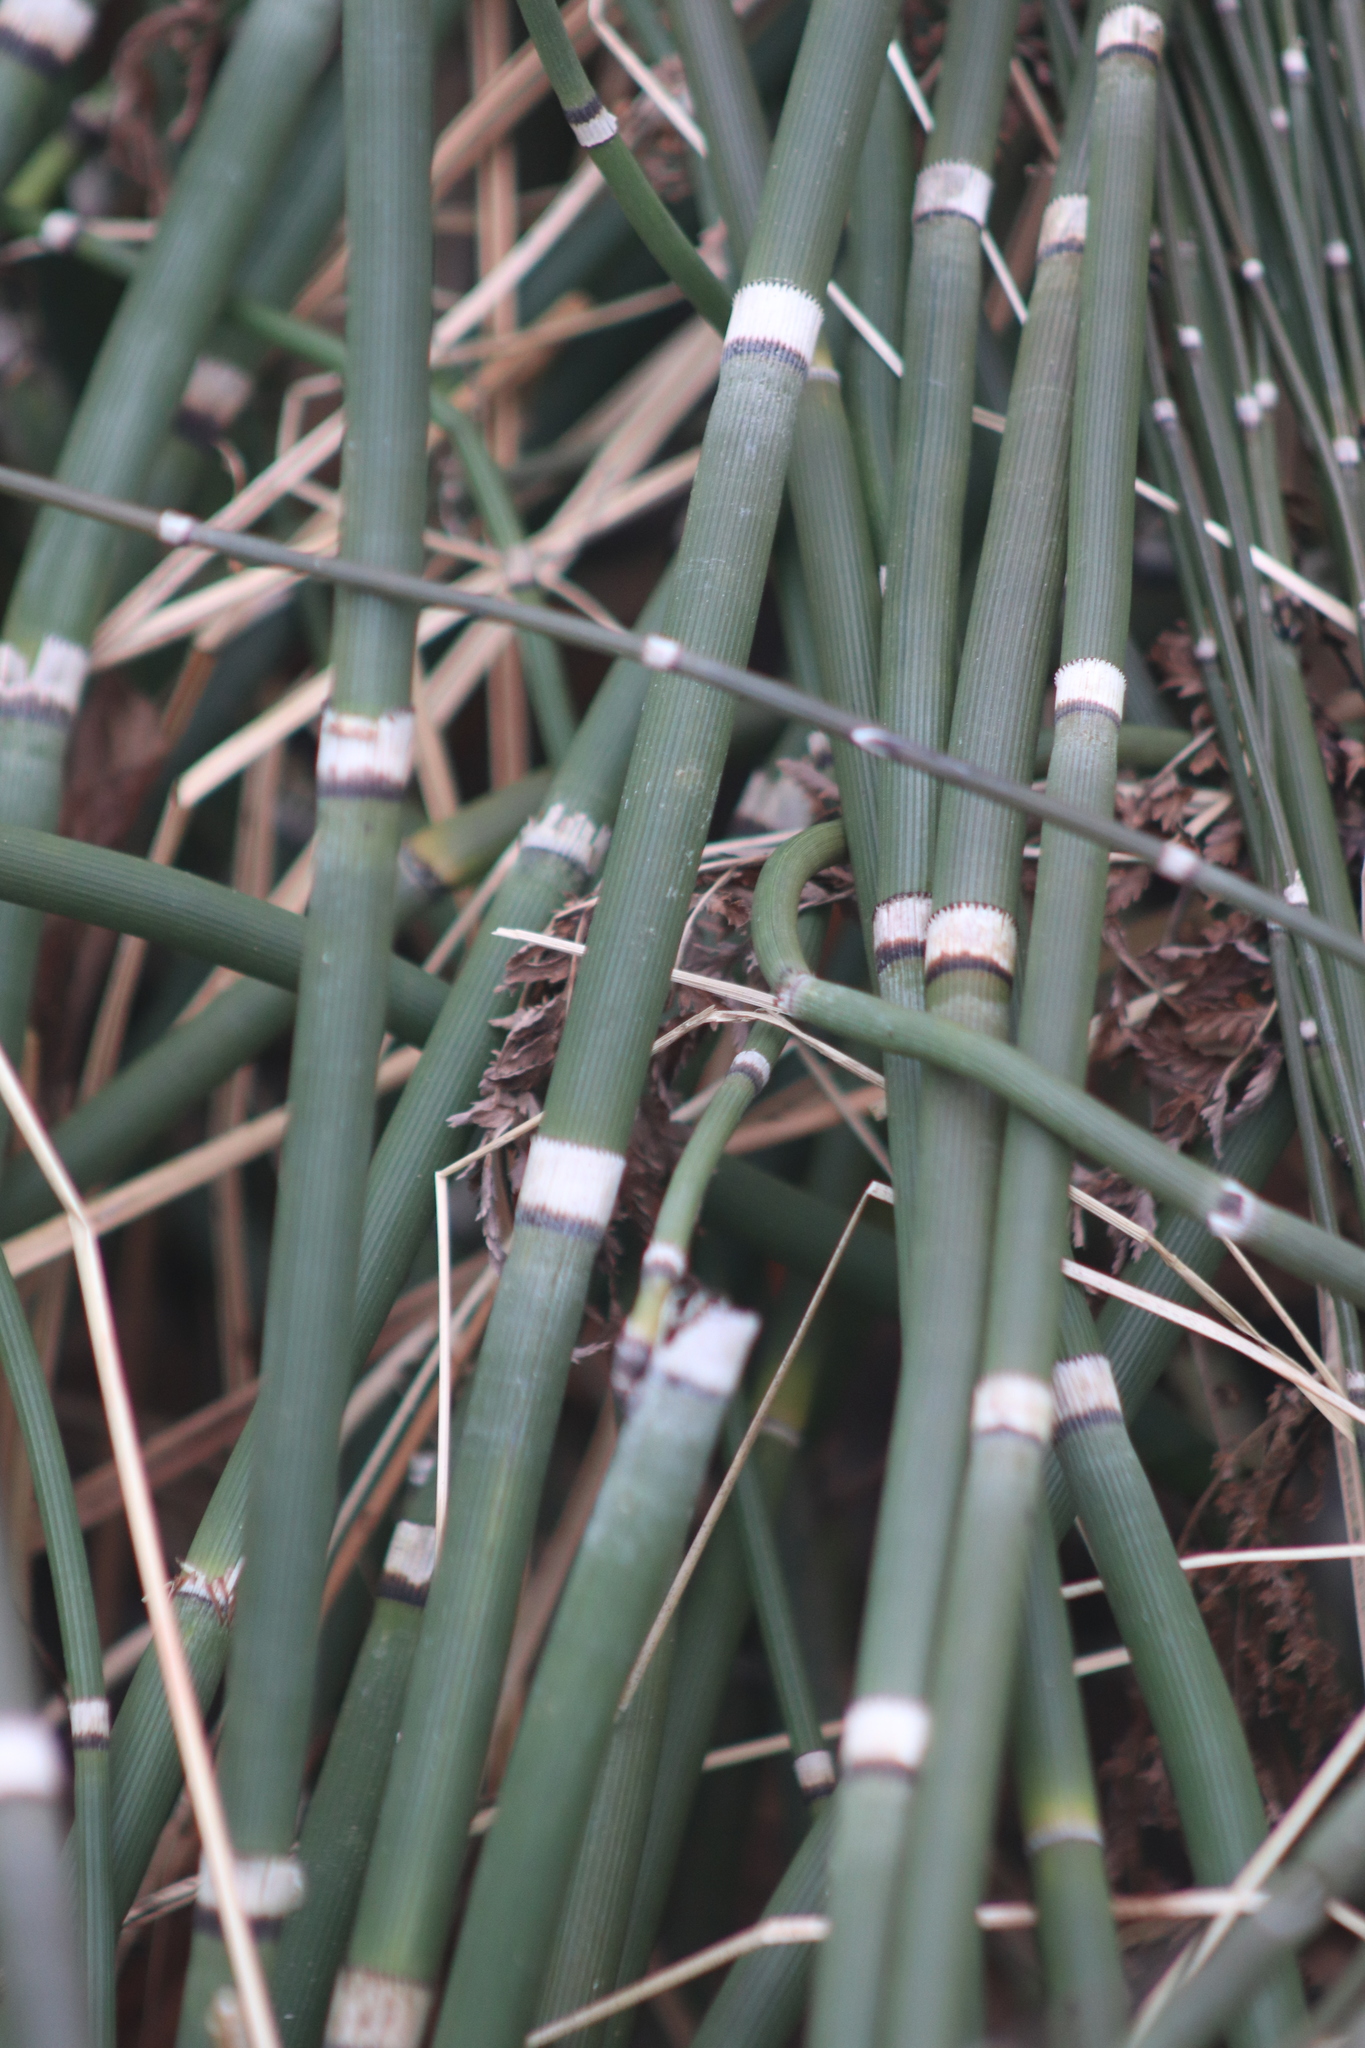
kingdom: Plantae
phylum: Tracheophyta
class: Polypodiopsida
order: Equisetales
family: Equisetaceae
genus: Equisetum
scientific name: Equisetum hyemale
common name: Rough horsetail
